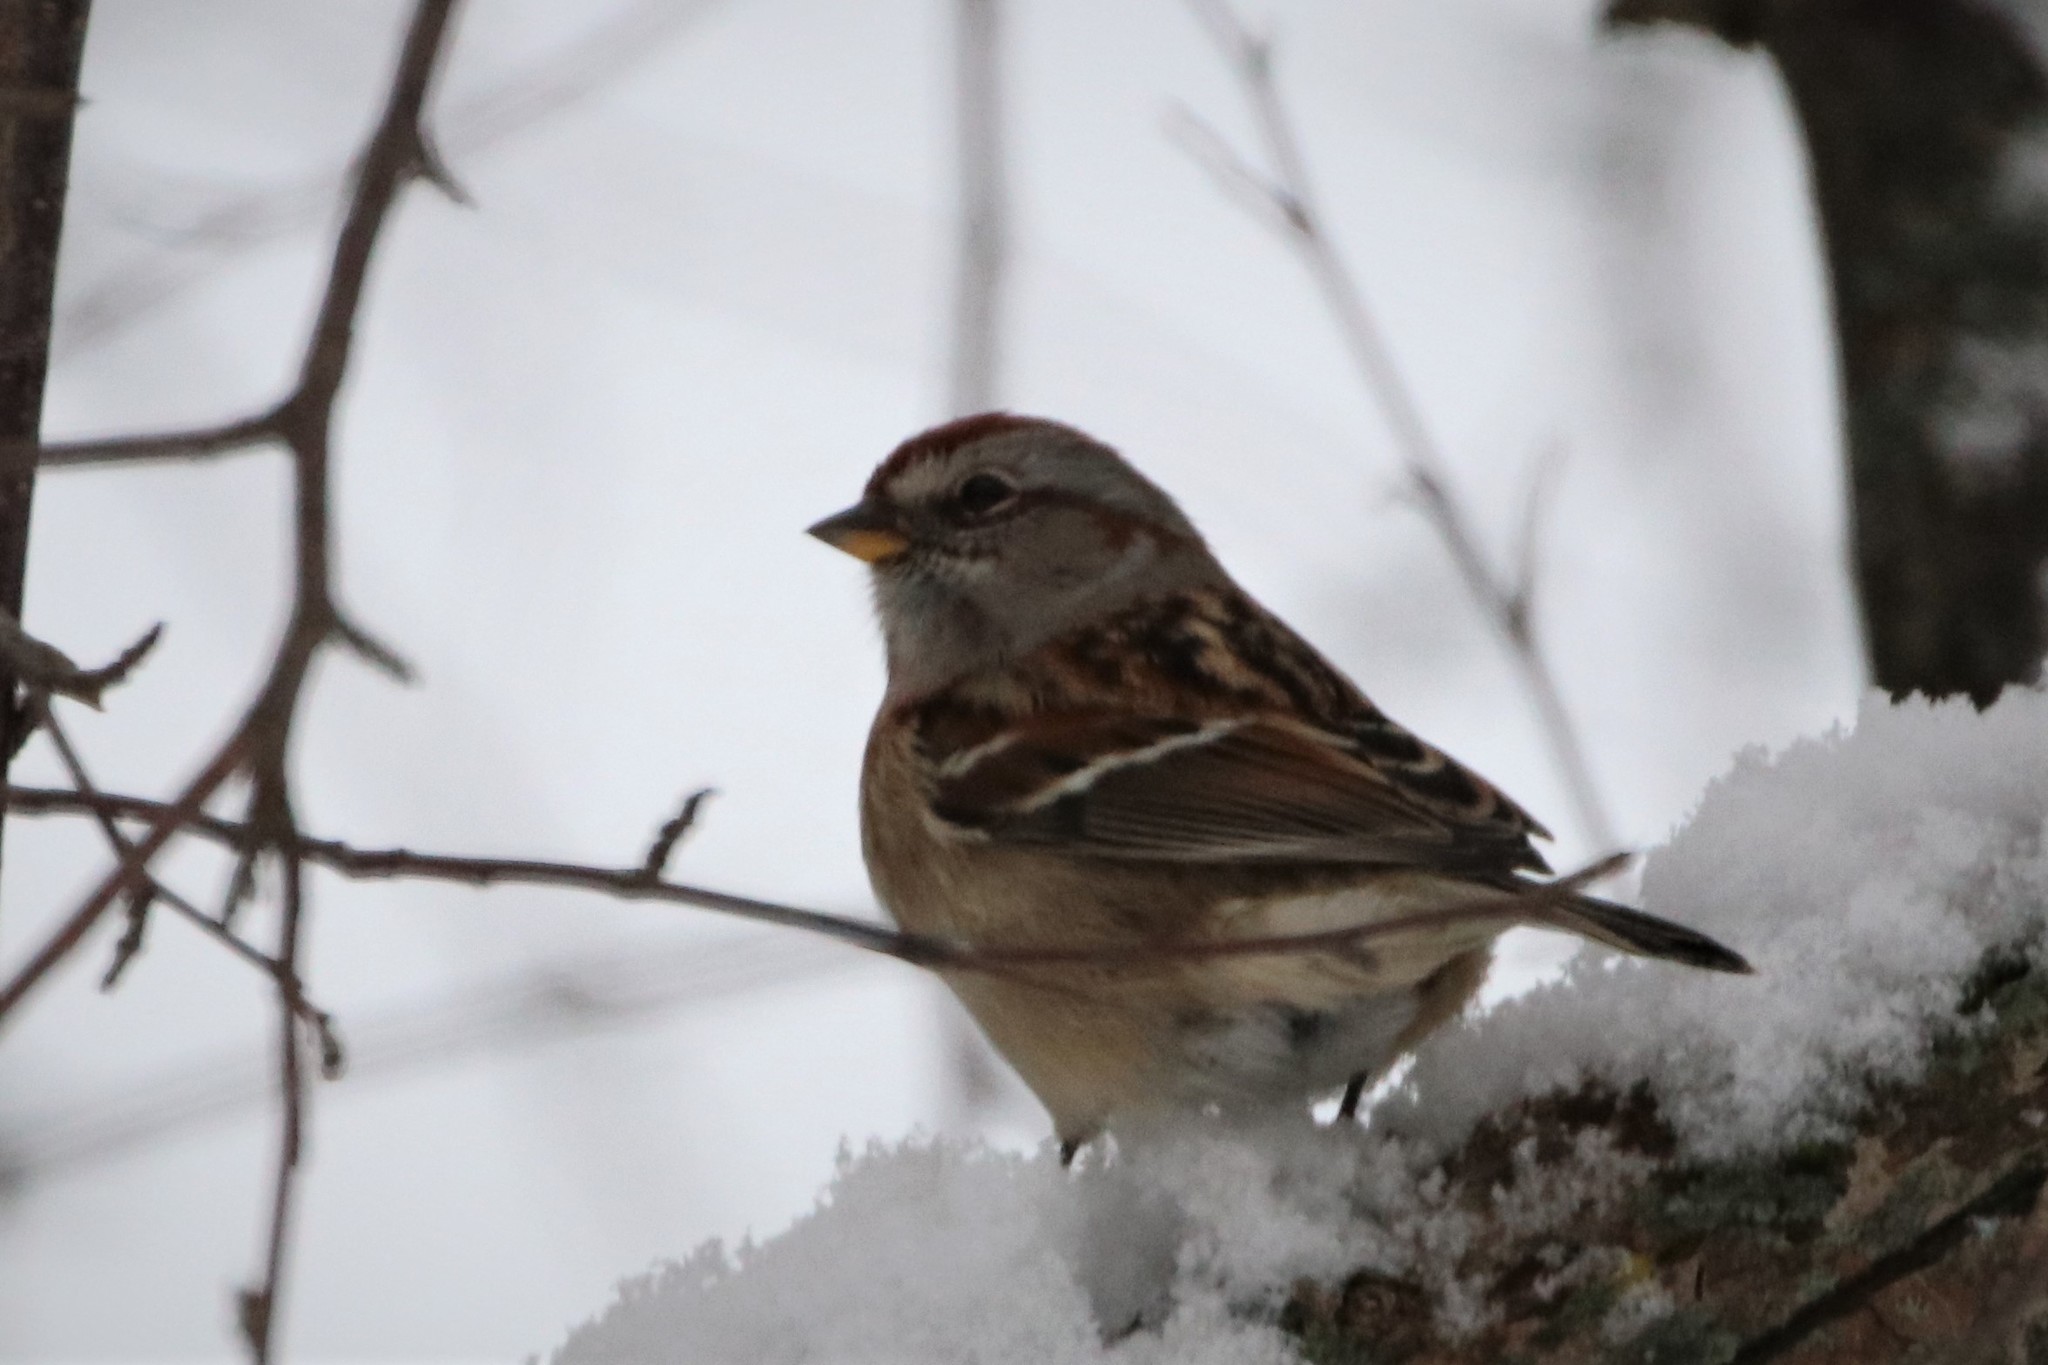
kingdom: Animalia
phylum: Chordata
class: Aves
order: Passeriformes
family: Passerellidae
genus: Spizelloides
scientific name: Spizelloides arborea
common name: American tree sparrow
